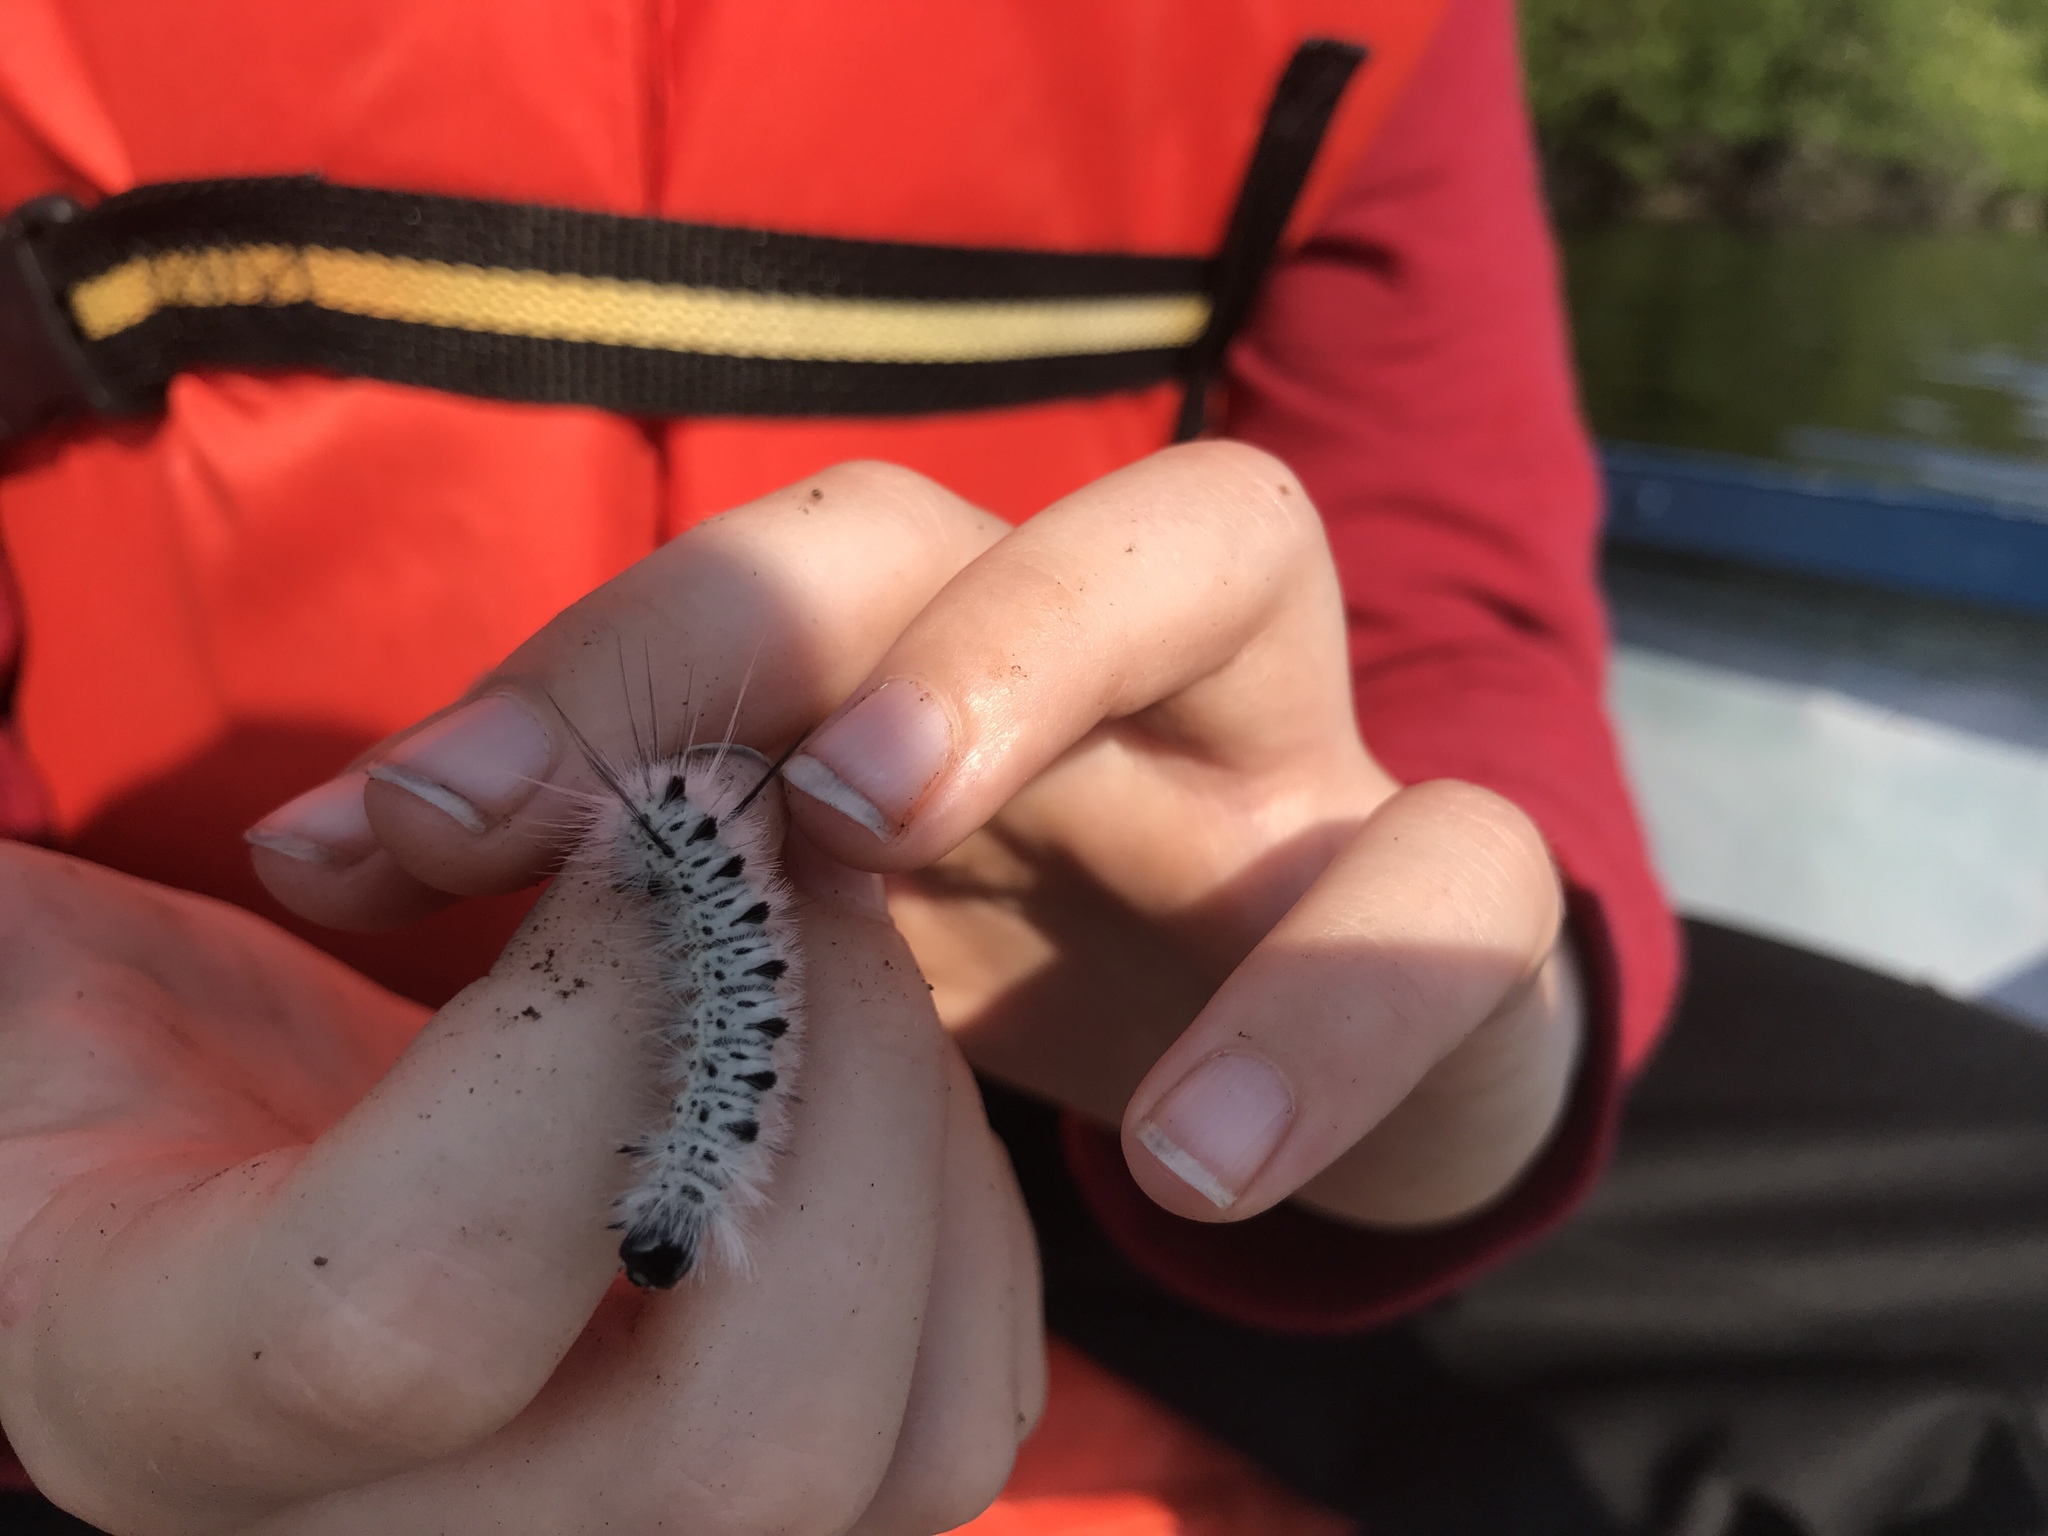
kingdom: Animalia
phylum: Arthropoda
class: Insecta
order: Lepidoptera
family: Erebidae
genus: Lophocampa
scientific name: Lophocampa caryae
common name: Hickory tussock moth
